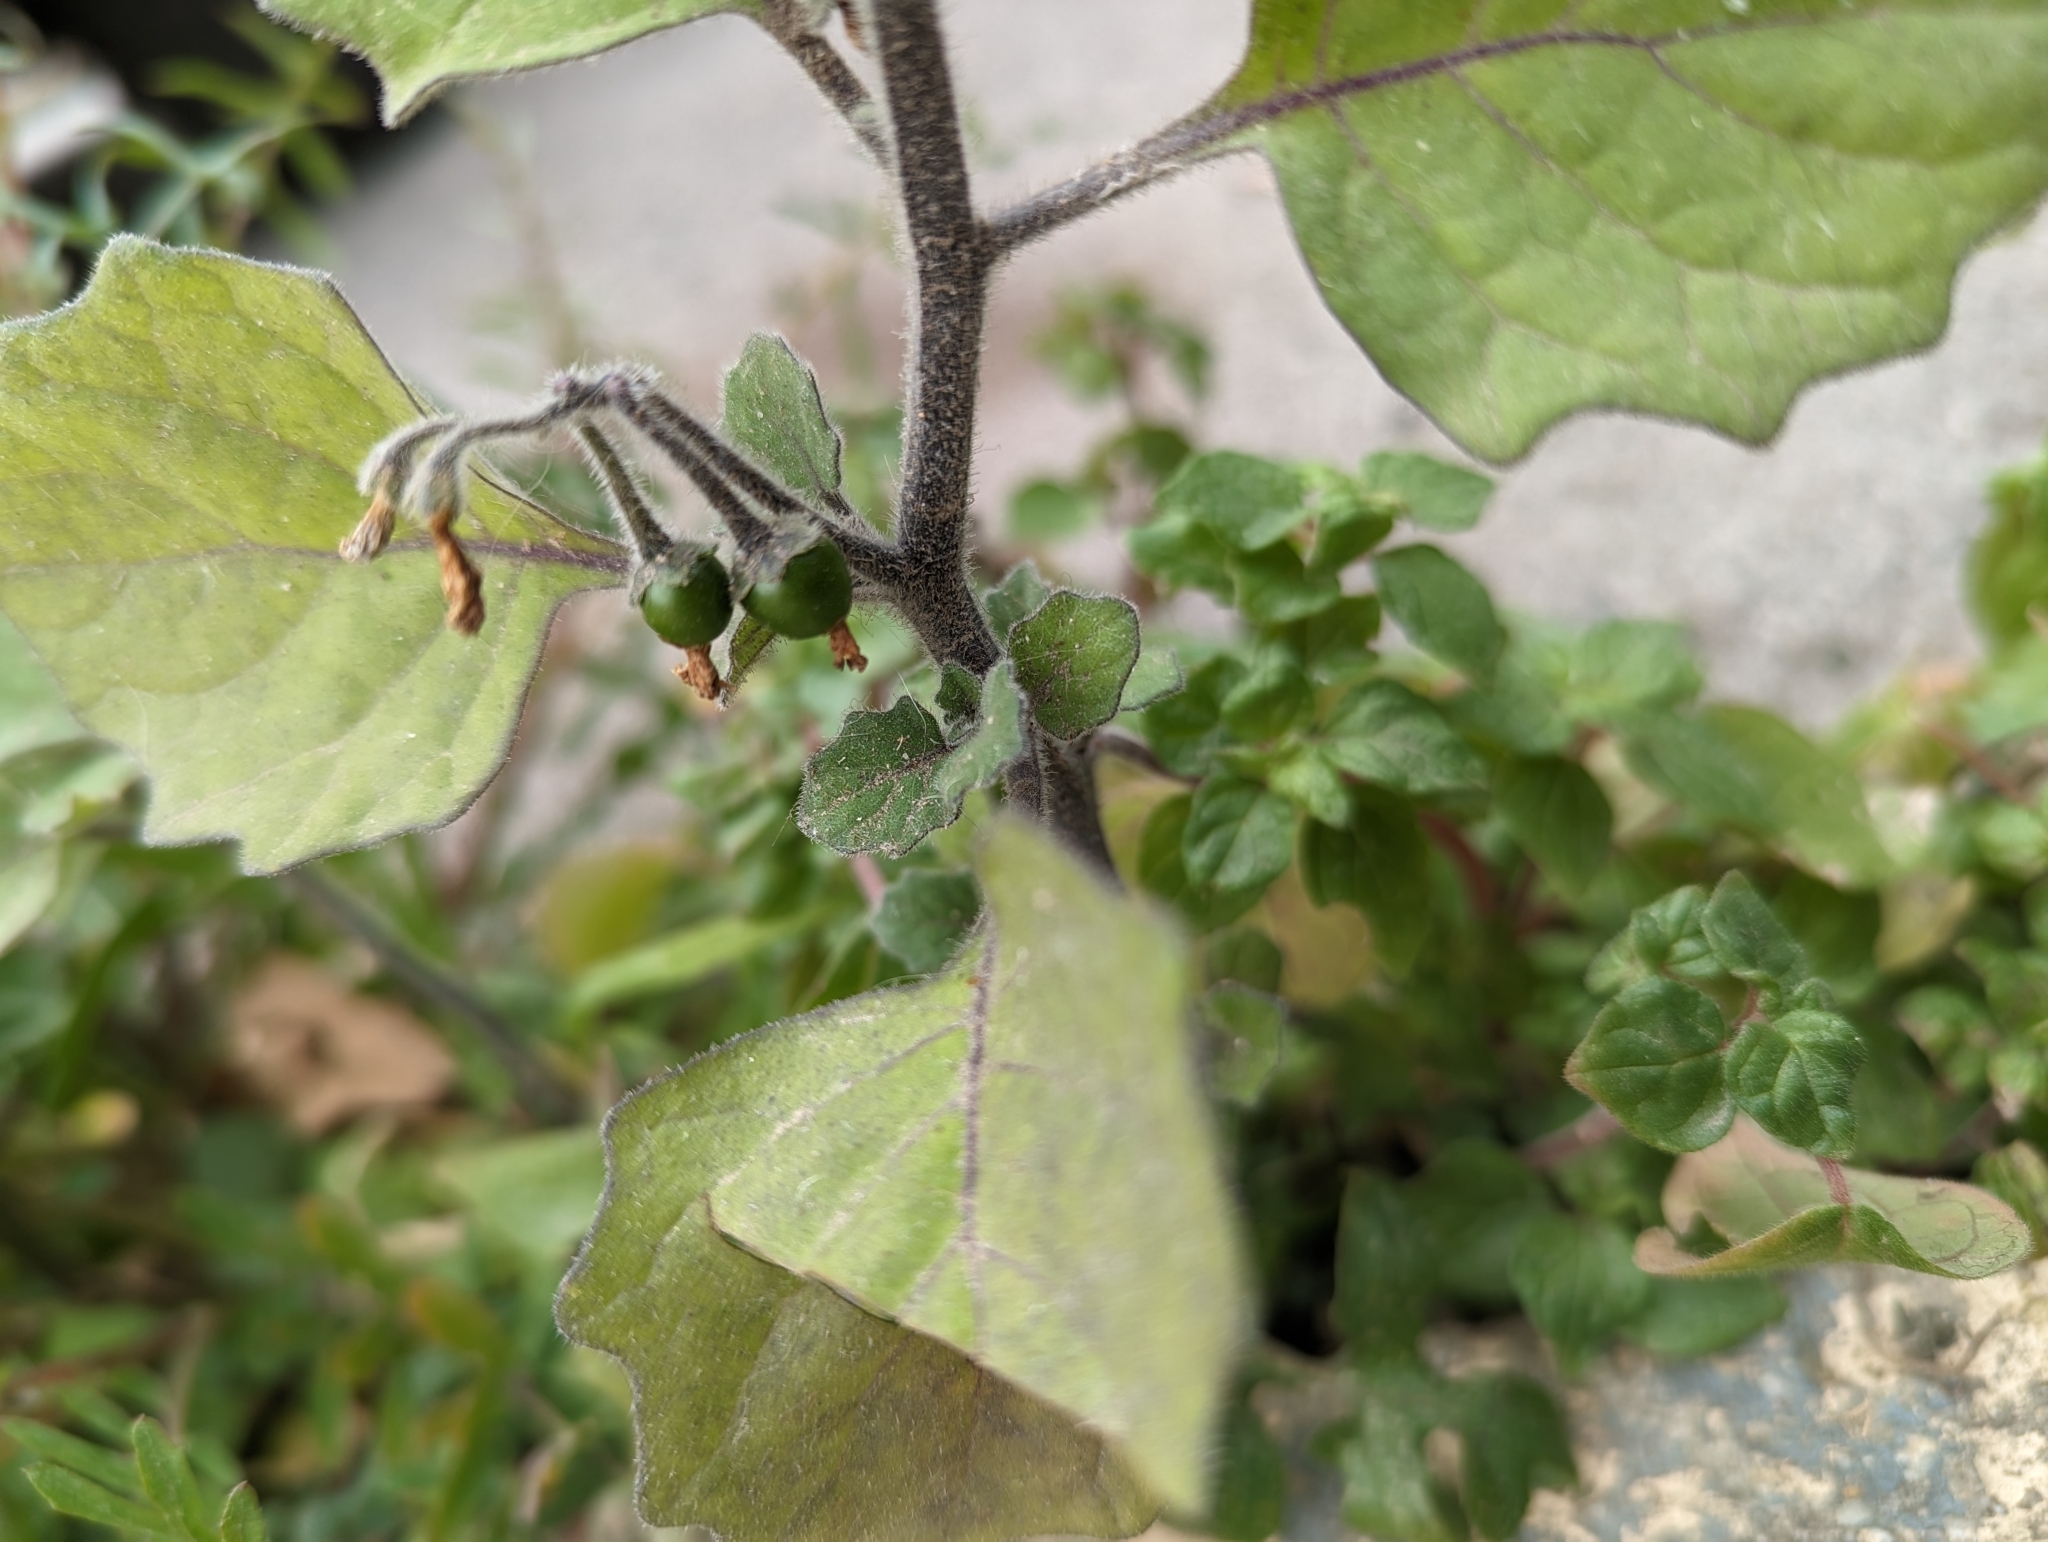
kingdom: Plantae
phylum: Tracheophyta
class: Magnoliopsida
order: Solanales
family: Solanaceae
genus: Solanum
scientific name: Solanum villosum
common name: Red nightshade
